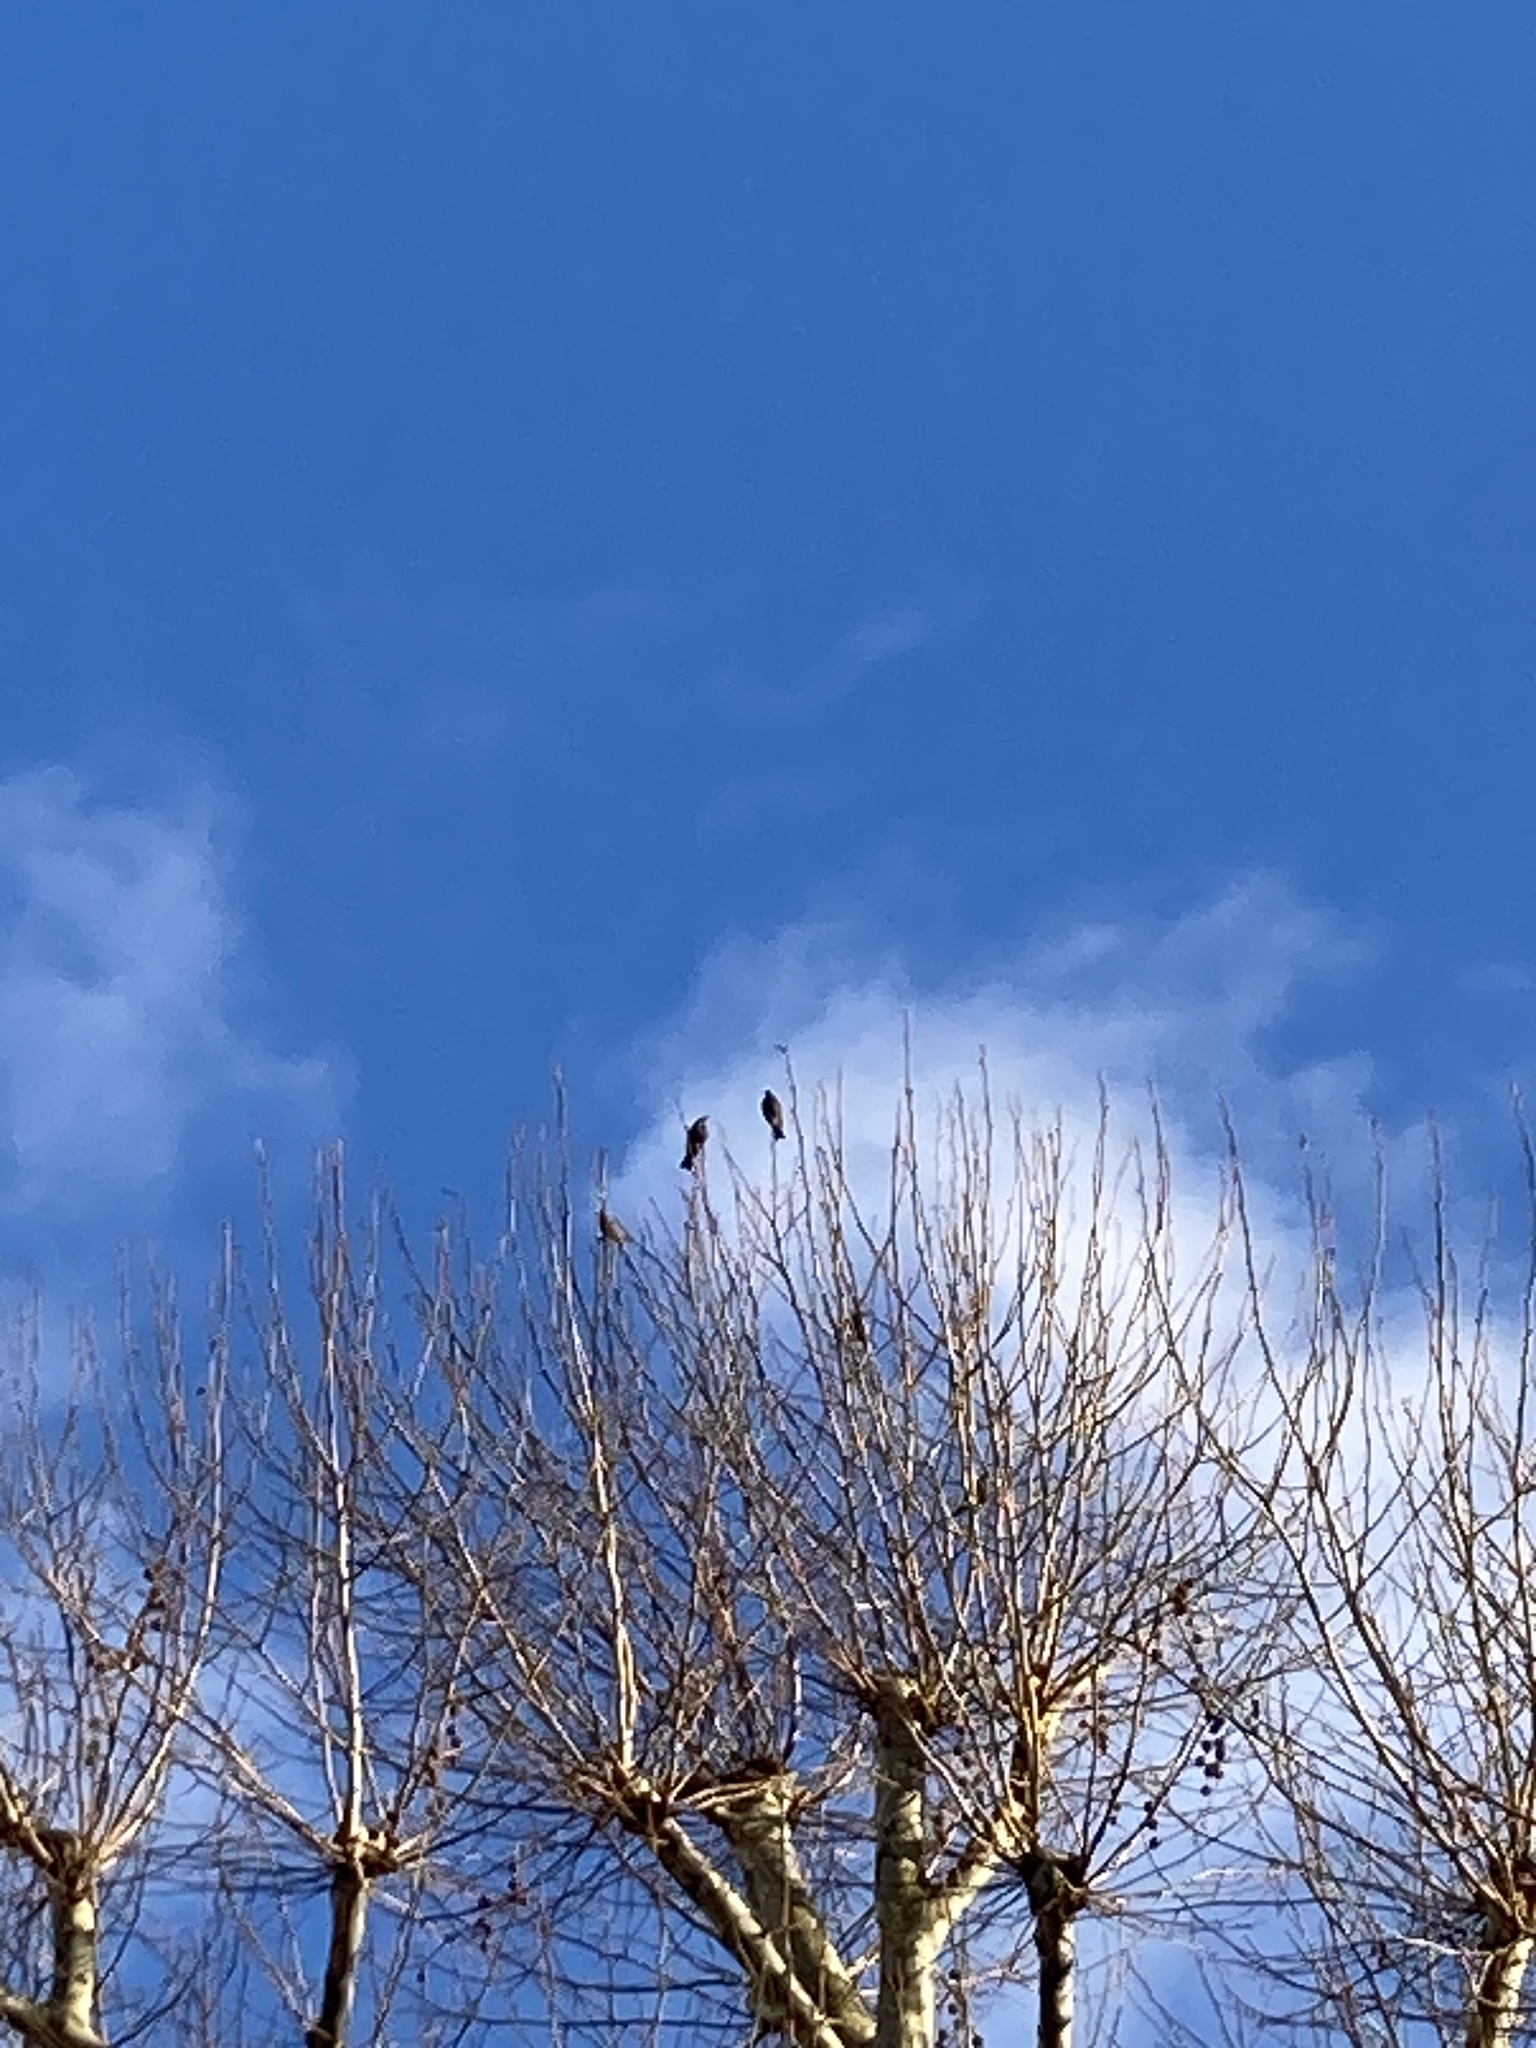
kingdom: Animalia
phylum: Chordata
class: Aves
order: Passeriformes
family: Sturnidae
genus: Sturnus
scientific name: Sturnus vulgaris
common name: Common starling
